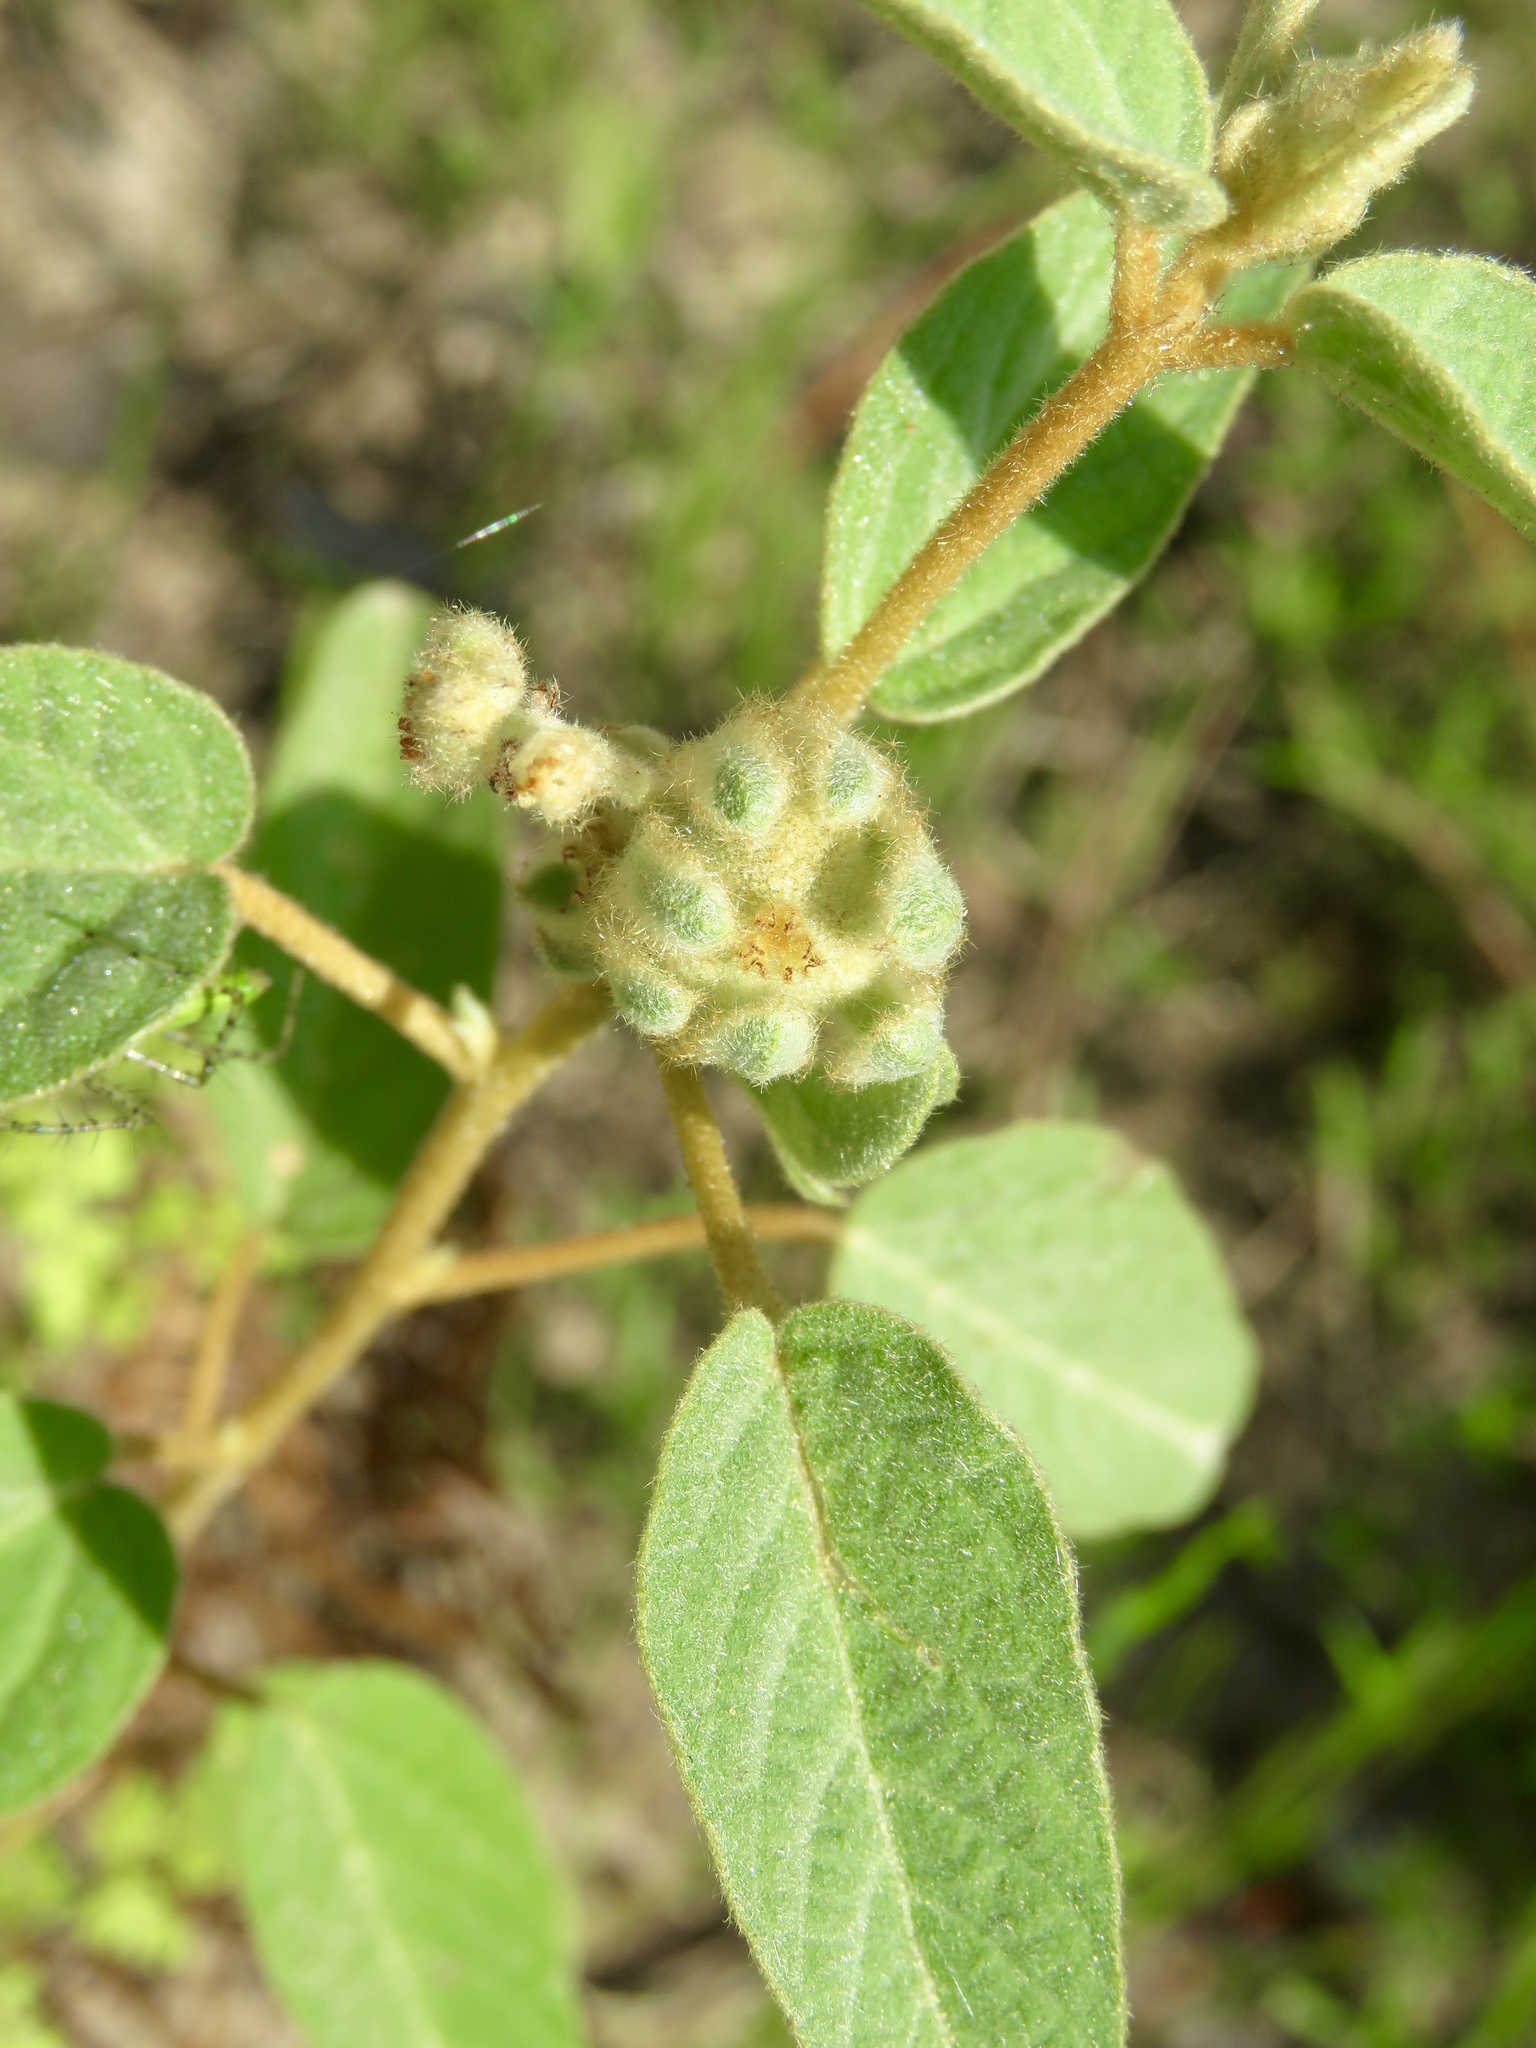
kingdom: Plantae
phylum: Tracheophyta
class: Magnoliopsida
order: Malpighiales
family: Euphorbiaceae
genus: Croton
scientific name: Croton lindheimeri
